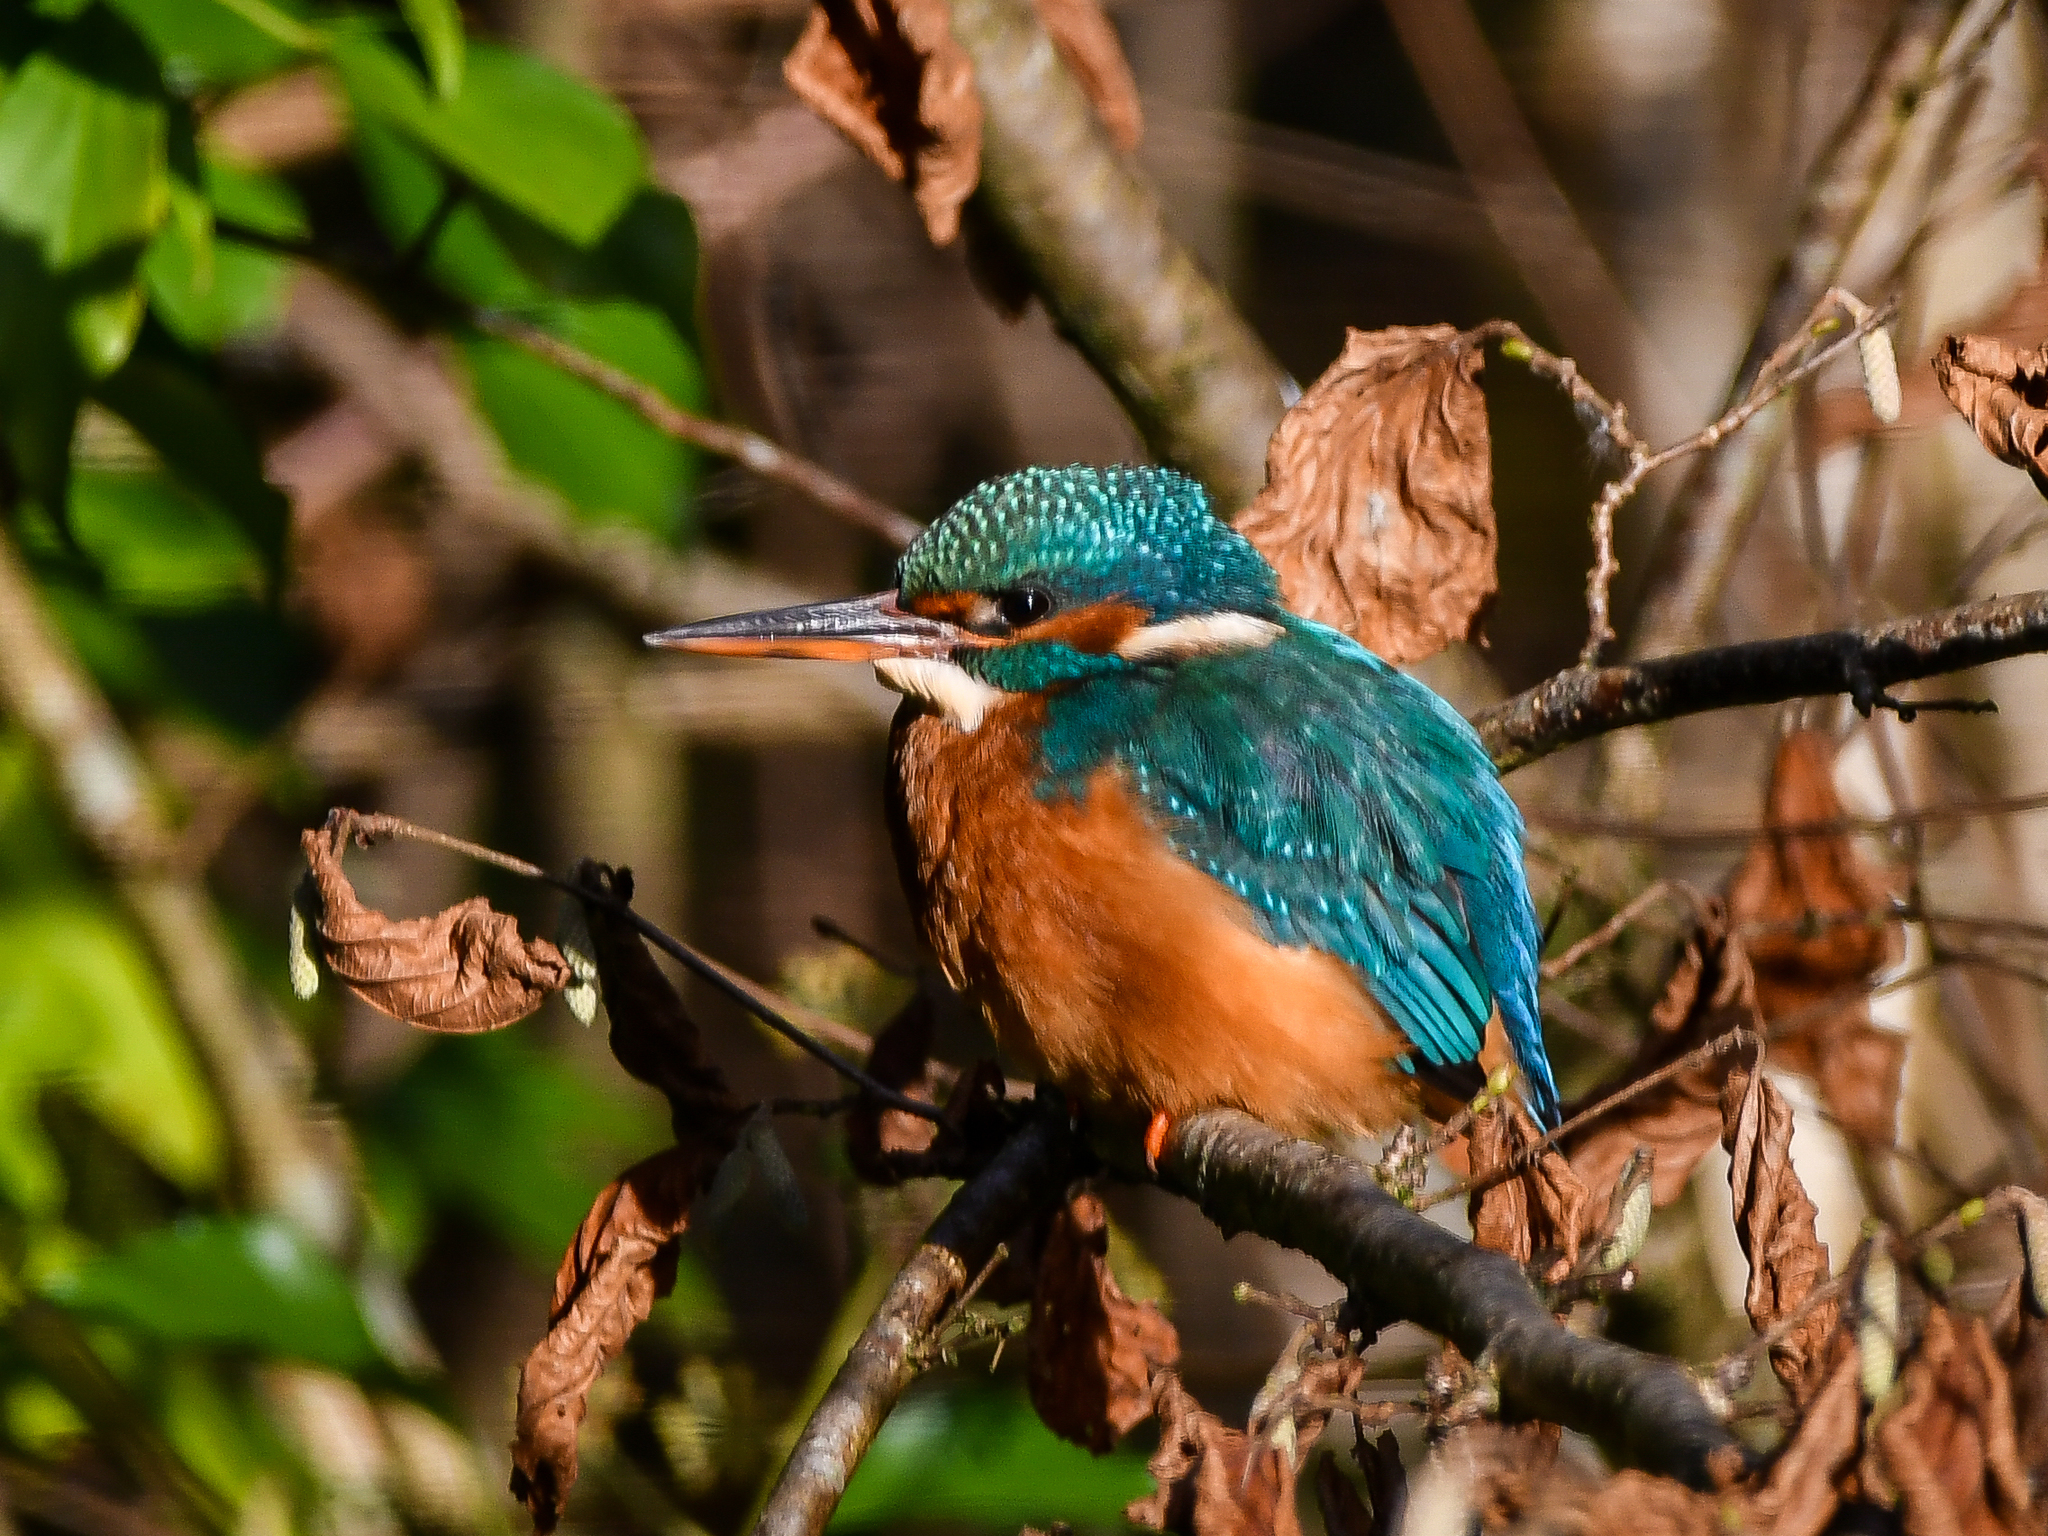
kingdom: Animalia
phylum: Chordata
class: Aves
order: Coraciiformes
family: Alcedinidae
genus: Alcedo
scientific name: Alcedo atthis
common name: Common kingfisher
